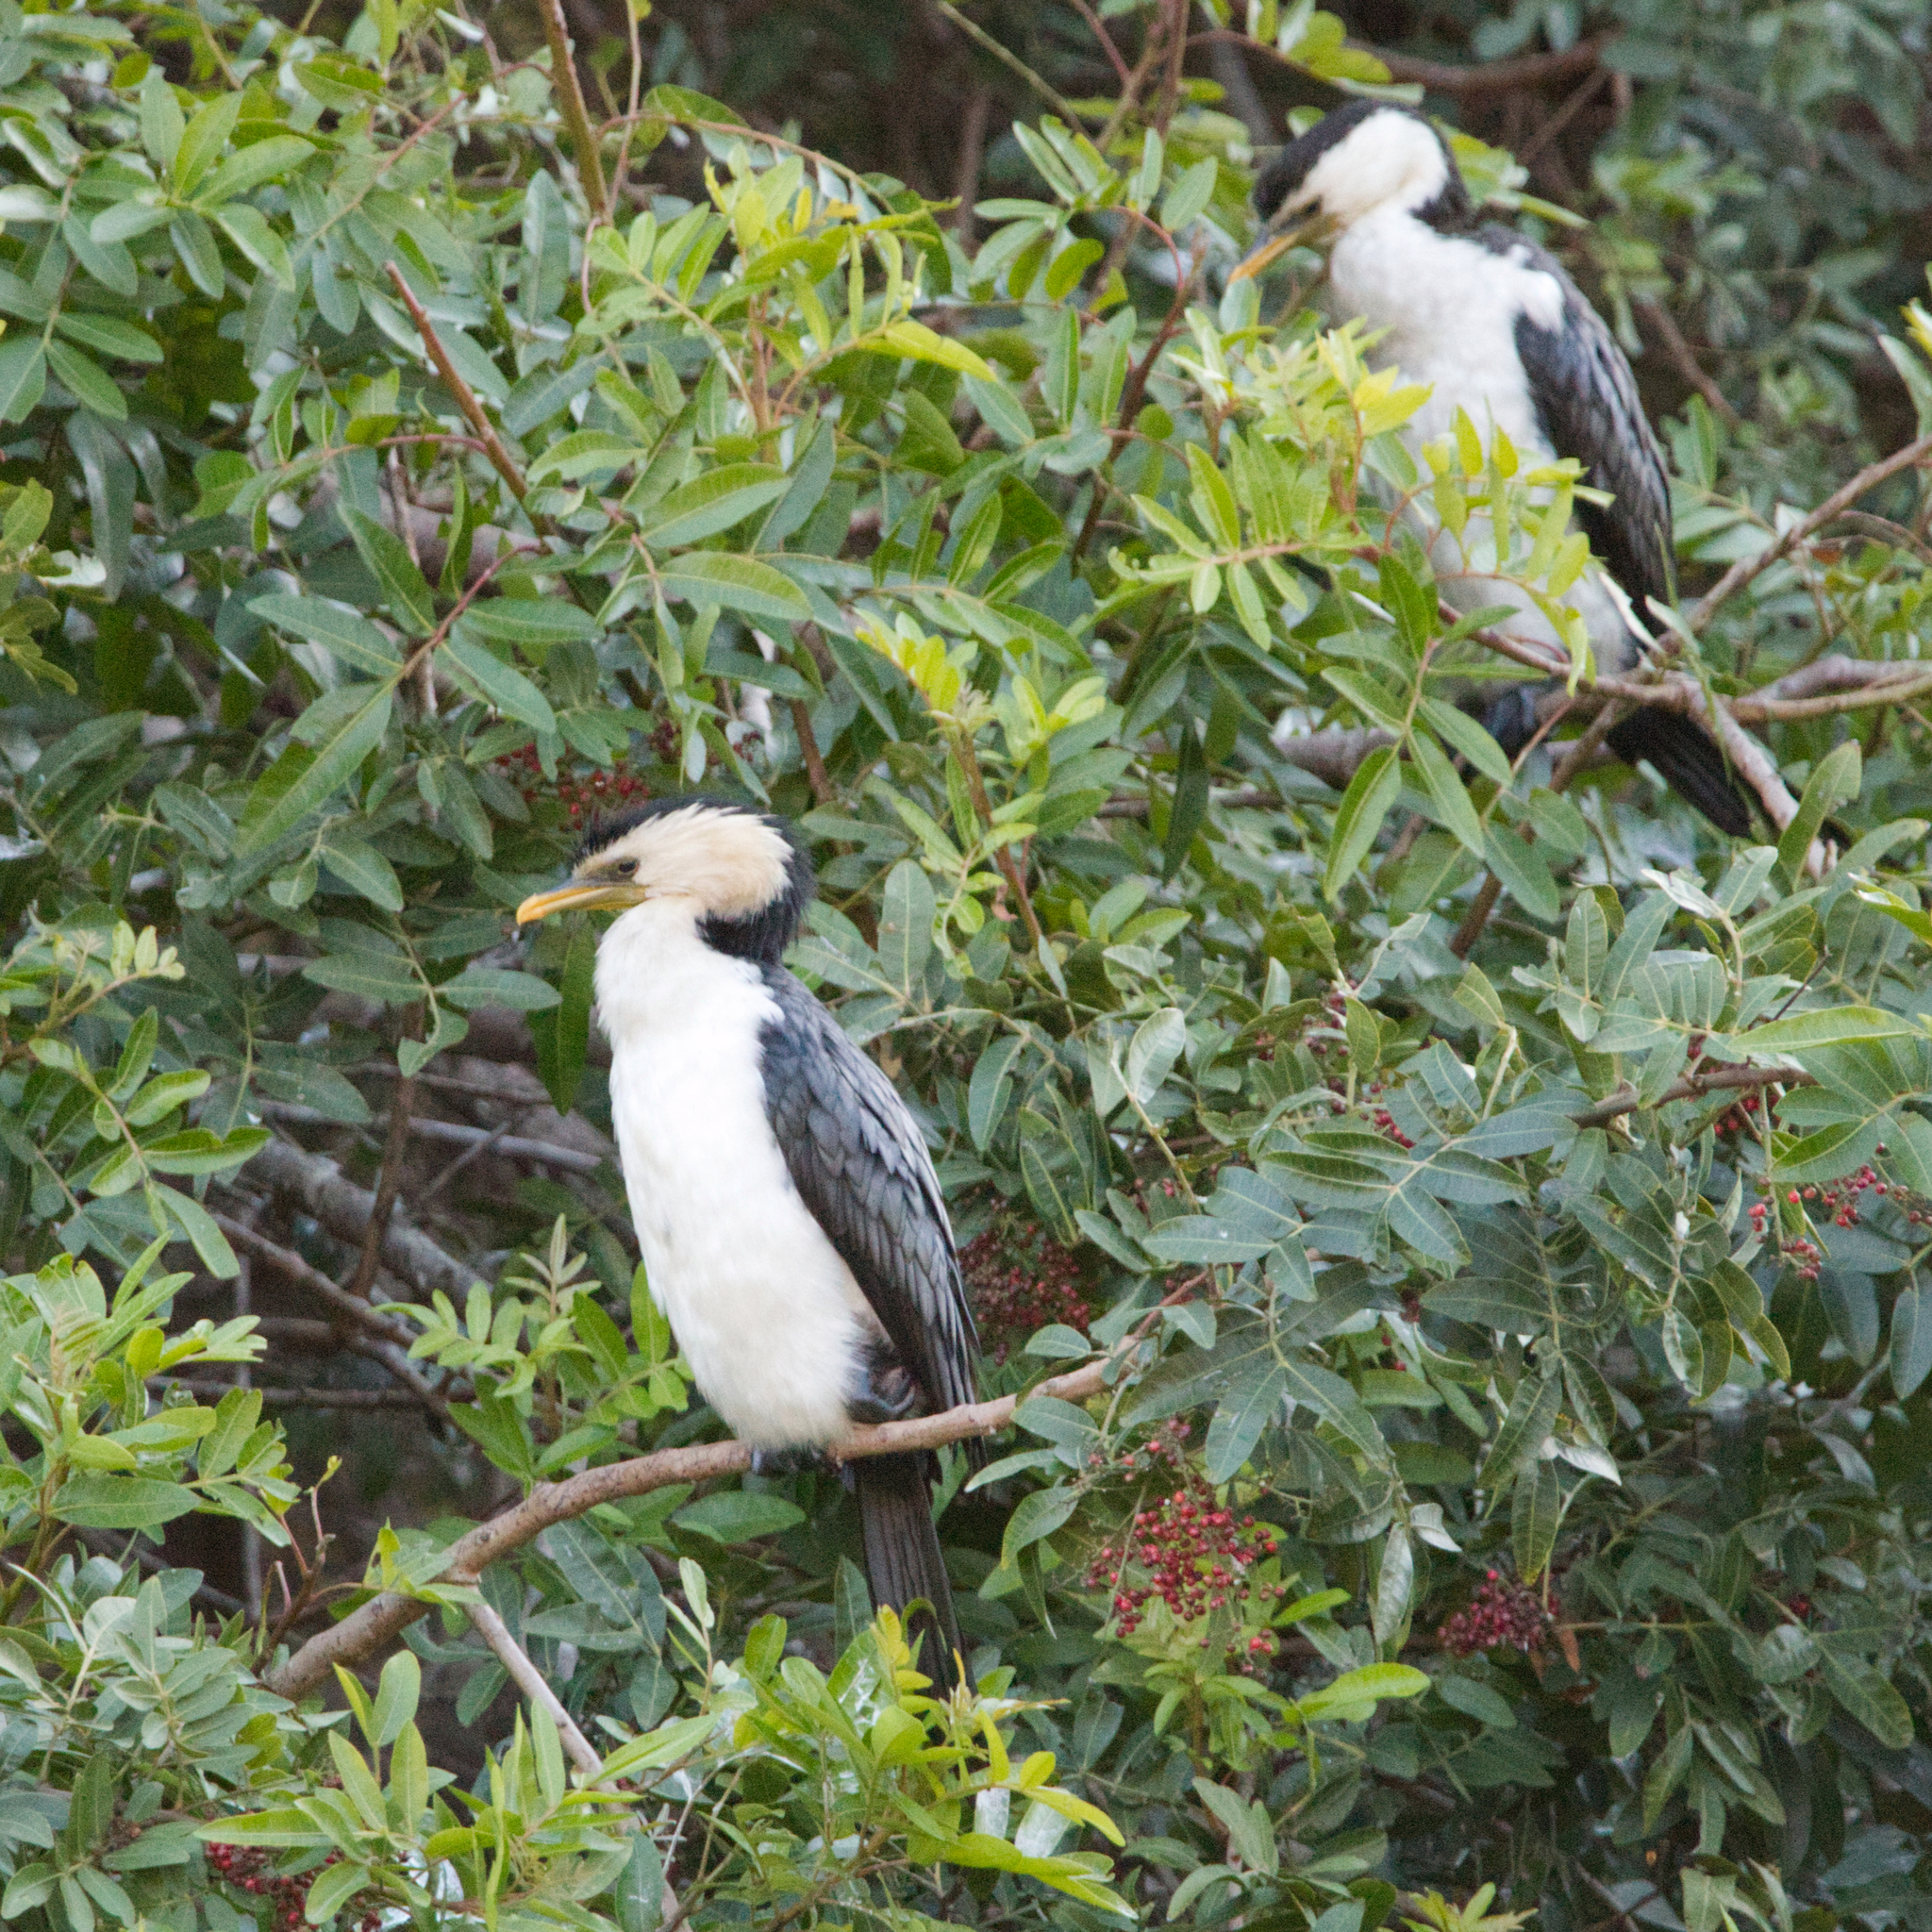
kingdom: Animalia
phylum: Chordata
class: Aves
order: Suliformes
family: Phalacrocoracidae
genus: Microcarbo
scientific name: Microcarbo melanoleucos
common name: Little pied cormorant
